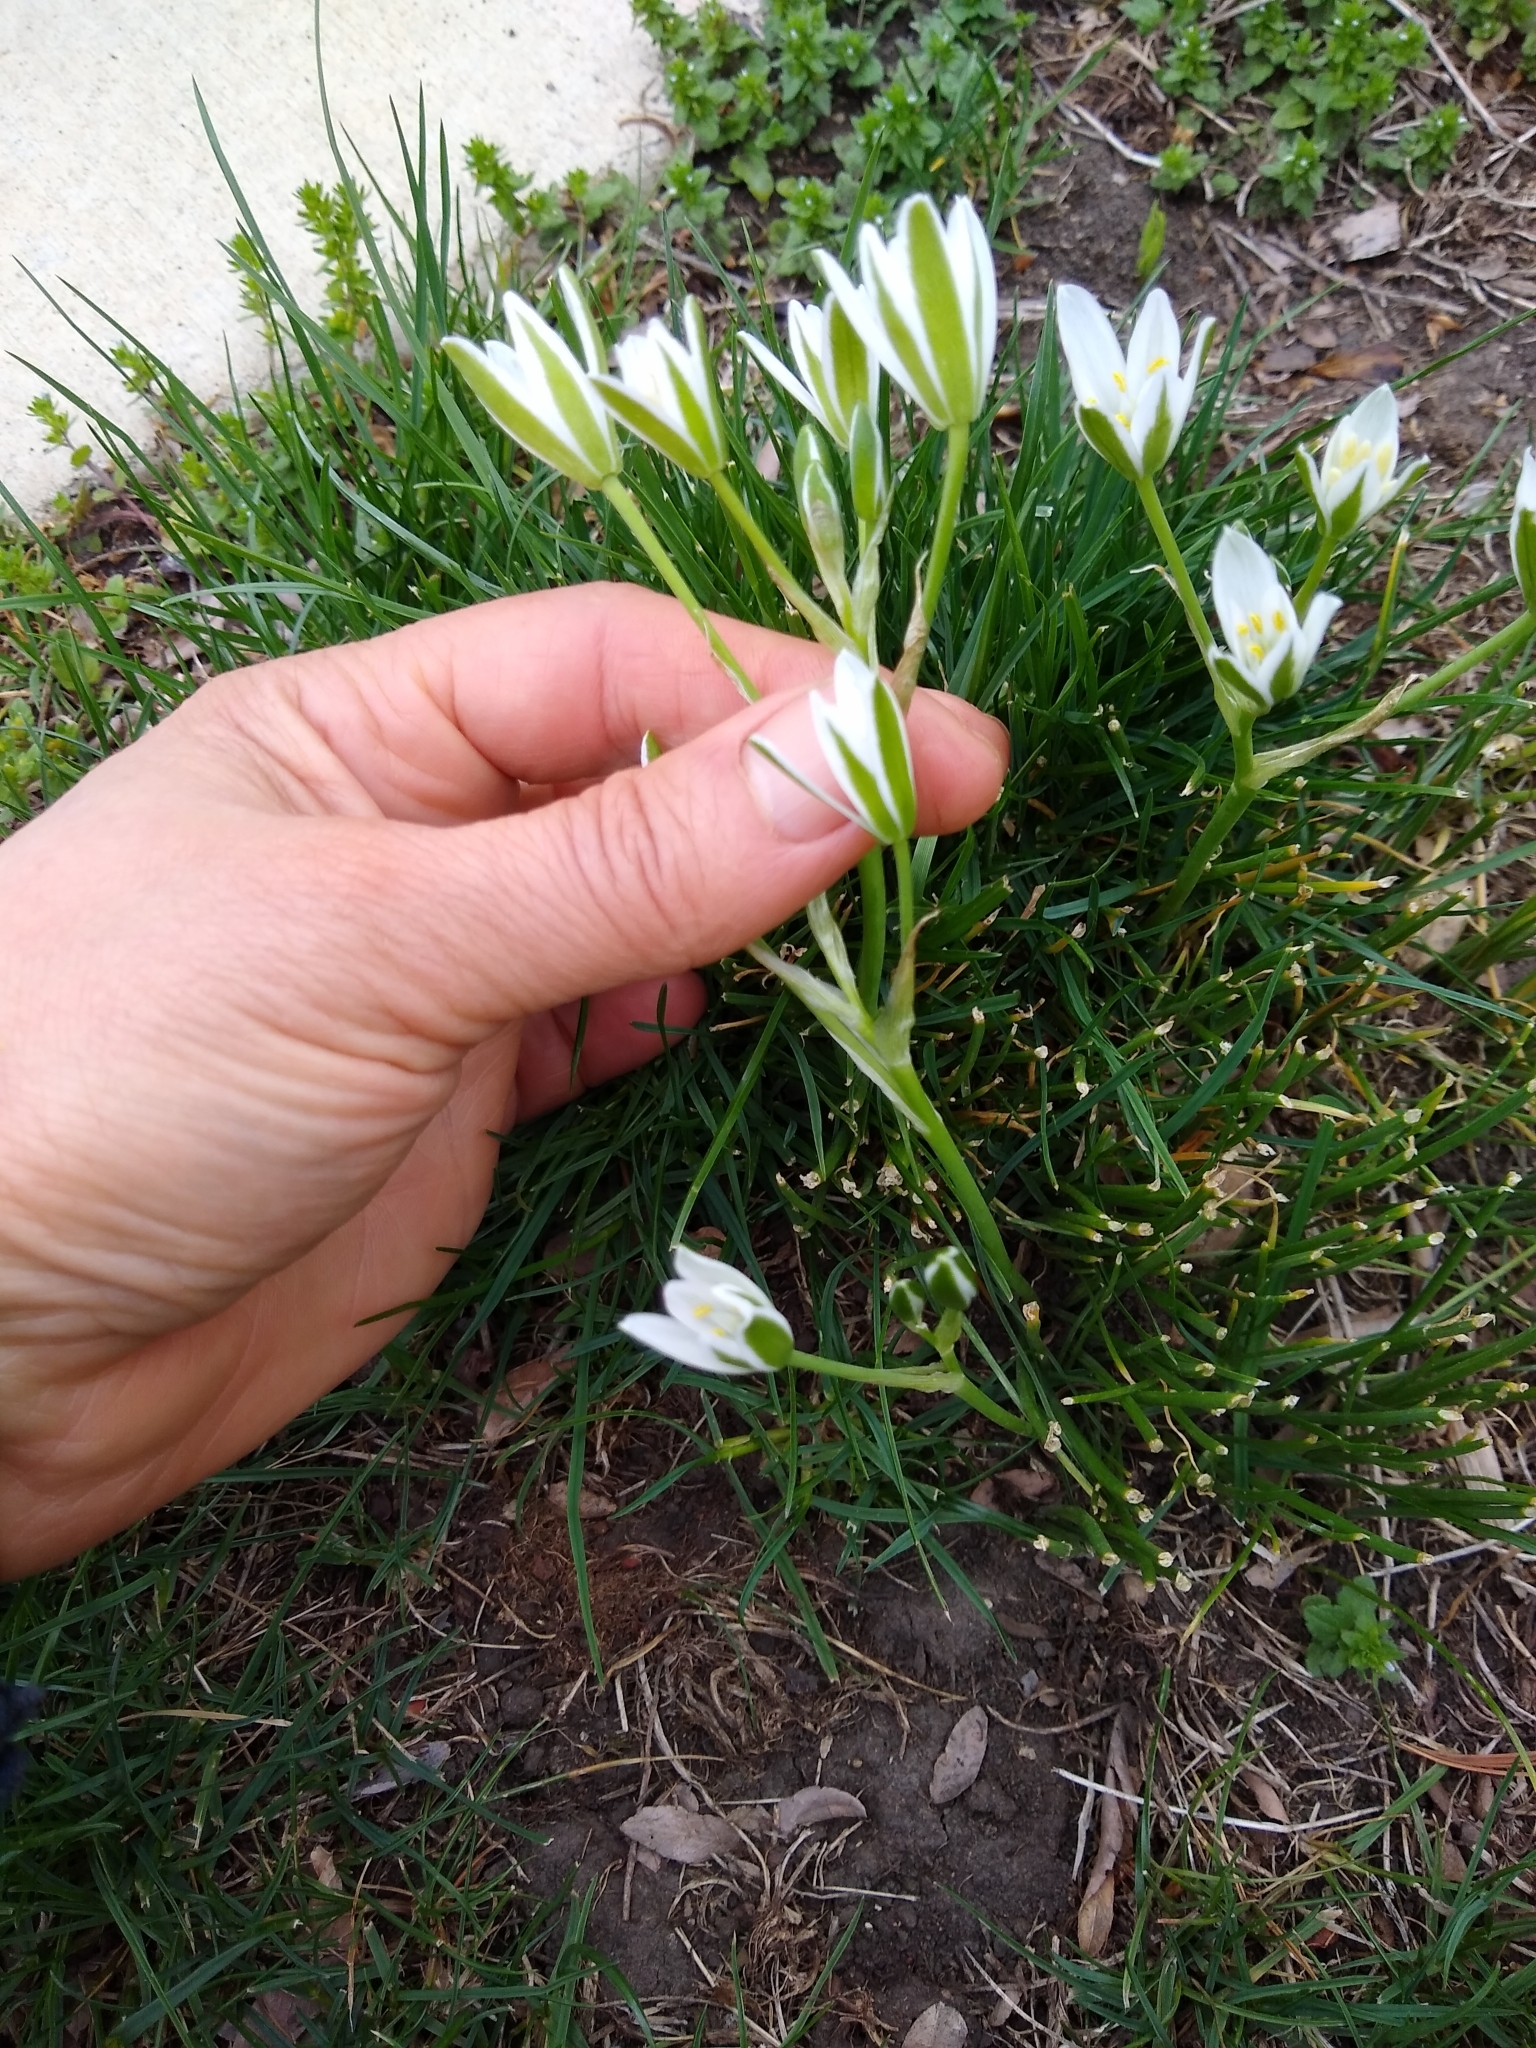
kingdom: Plantae
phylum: Tracheophyta
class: Liliopsida
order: Asparagales
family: Asparagaceae
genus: Ornithogalum
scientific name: Ornithogalum umbellatum
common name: Garden star-of-bethlehem
